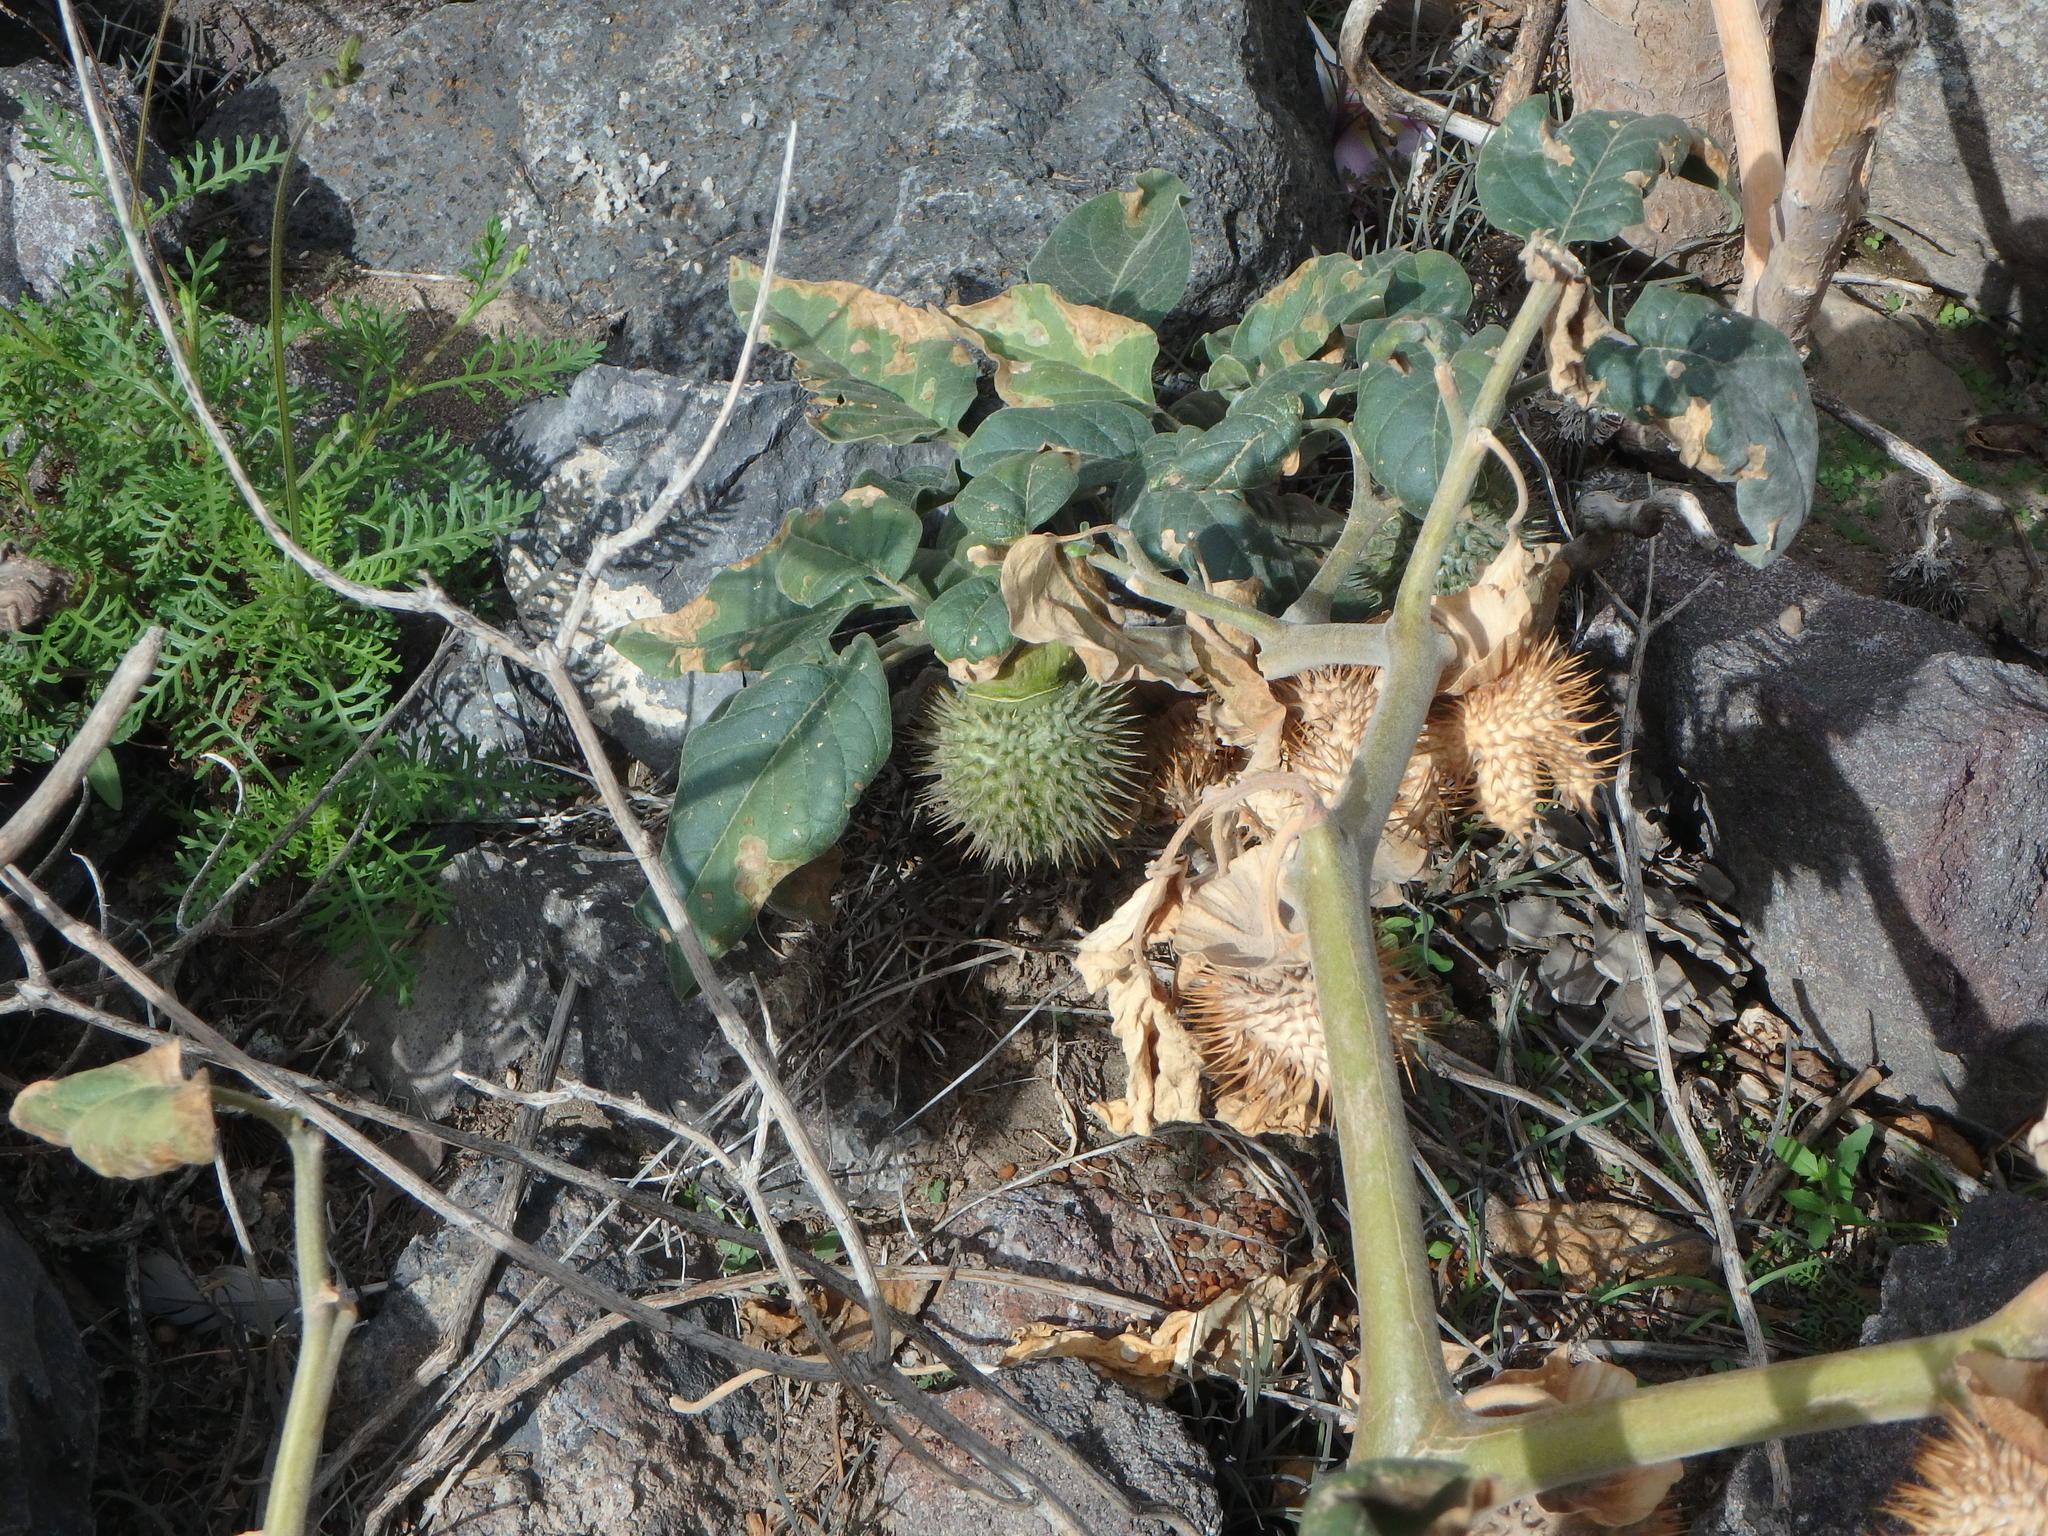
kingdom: Plantae
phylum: Tracheophyta
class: Magnoliopsida
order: Solanales
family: Solanaceae
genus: Datura
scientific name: Datura innoxia
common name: Downy thorn-apple
